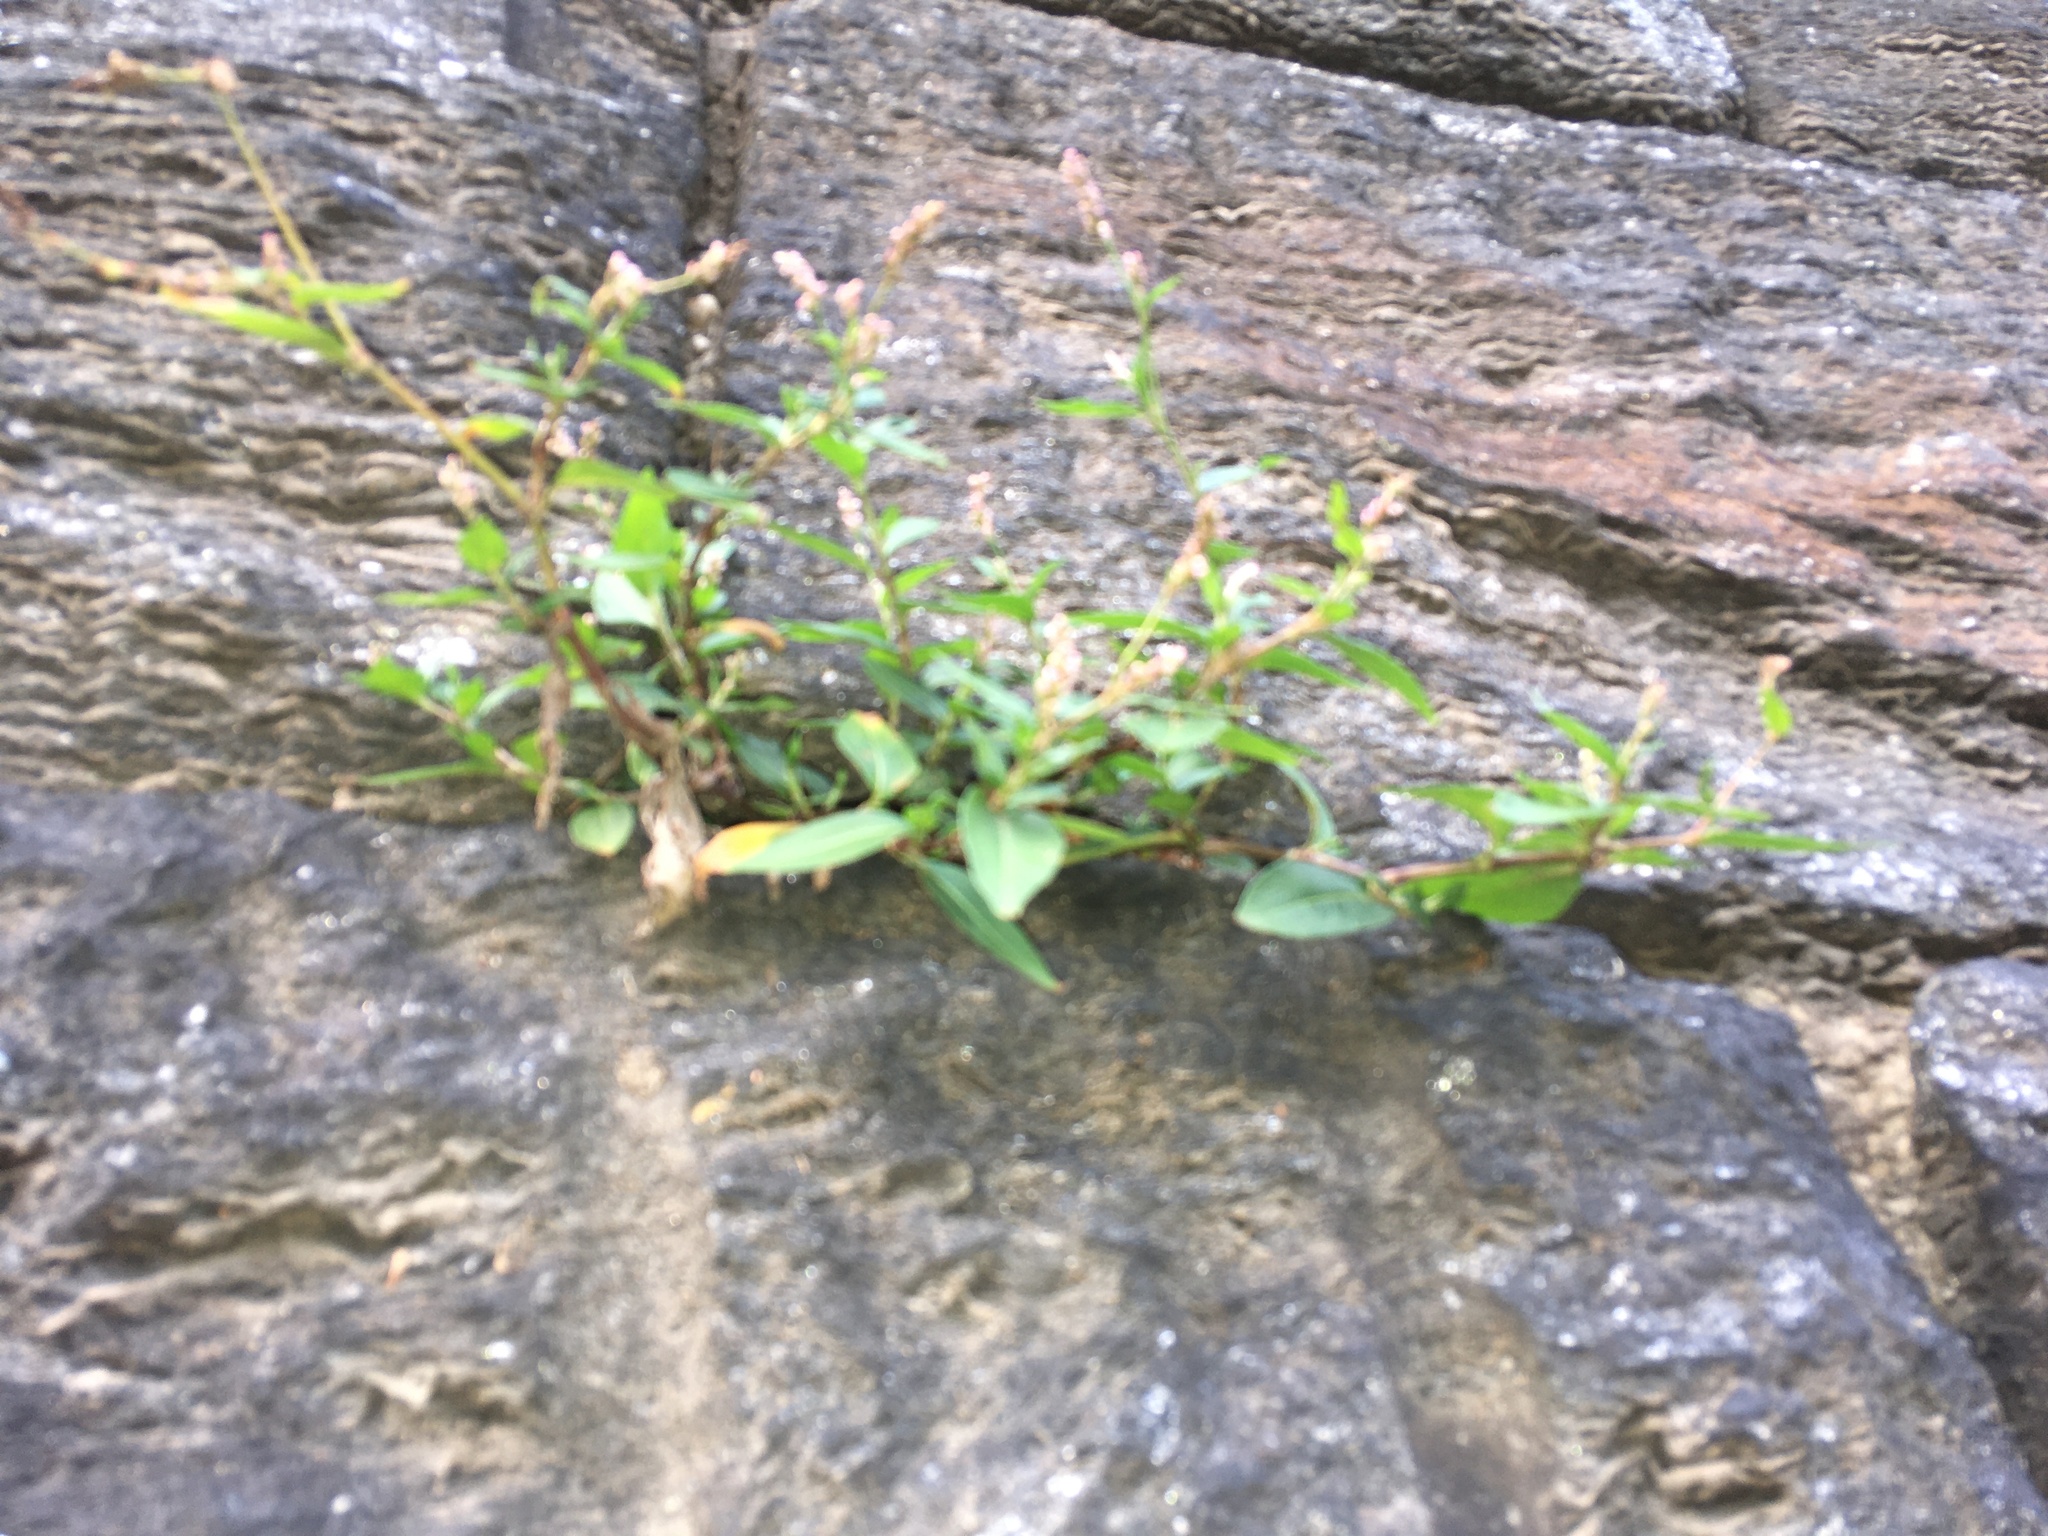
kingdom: Plantae
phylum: Tracheophyta
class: Magnoliopsida
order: Caryophyllales
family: Polygonaceae
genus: Persicaria
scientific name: Persicaria maculosa
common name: Redshank
